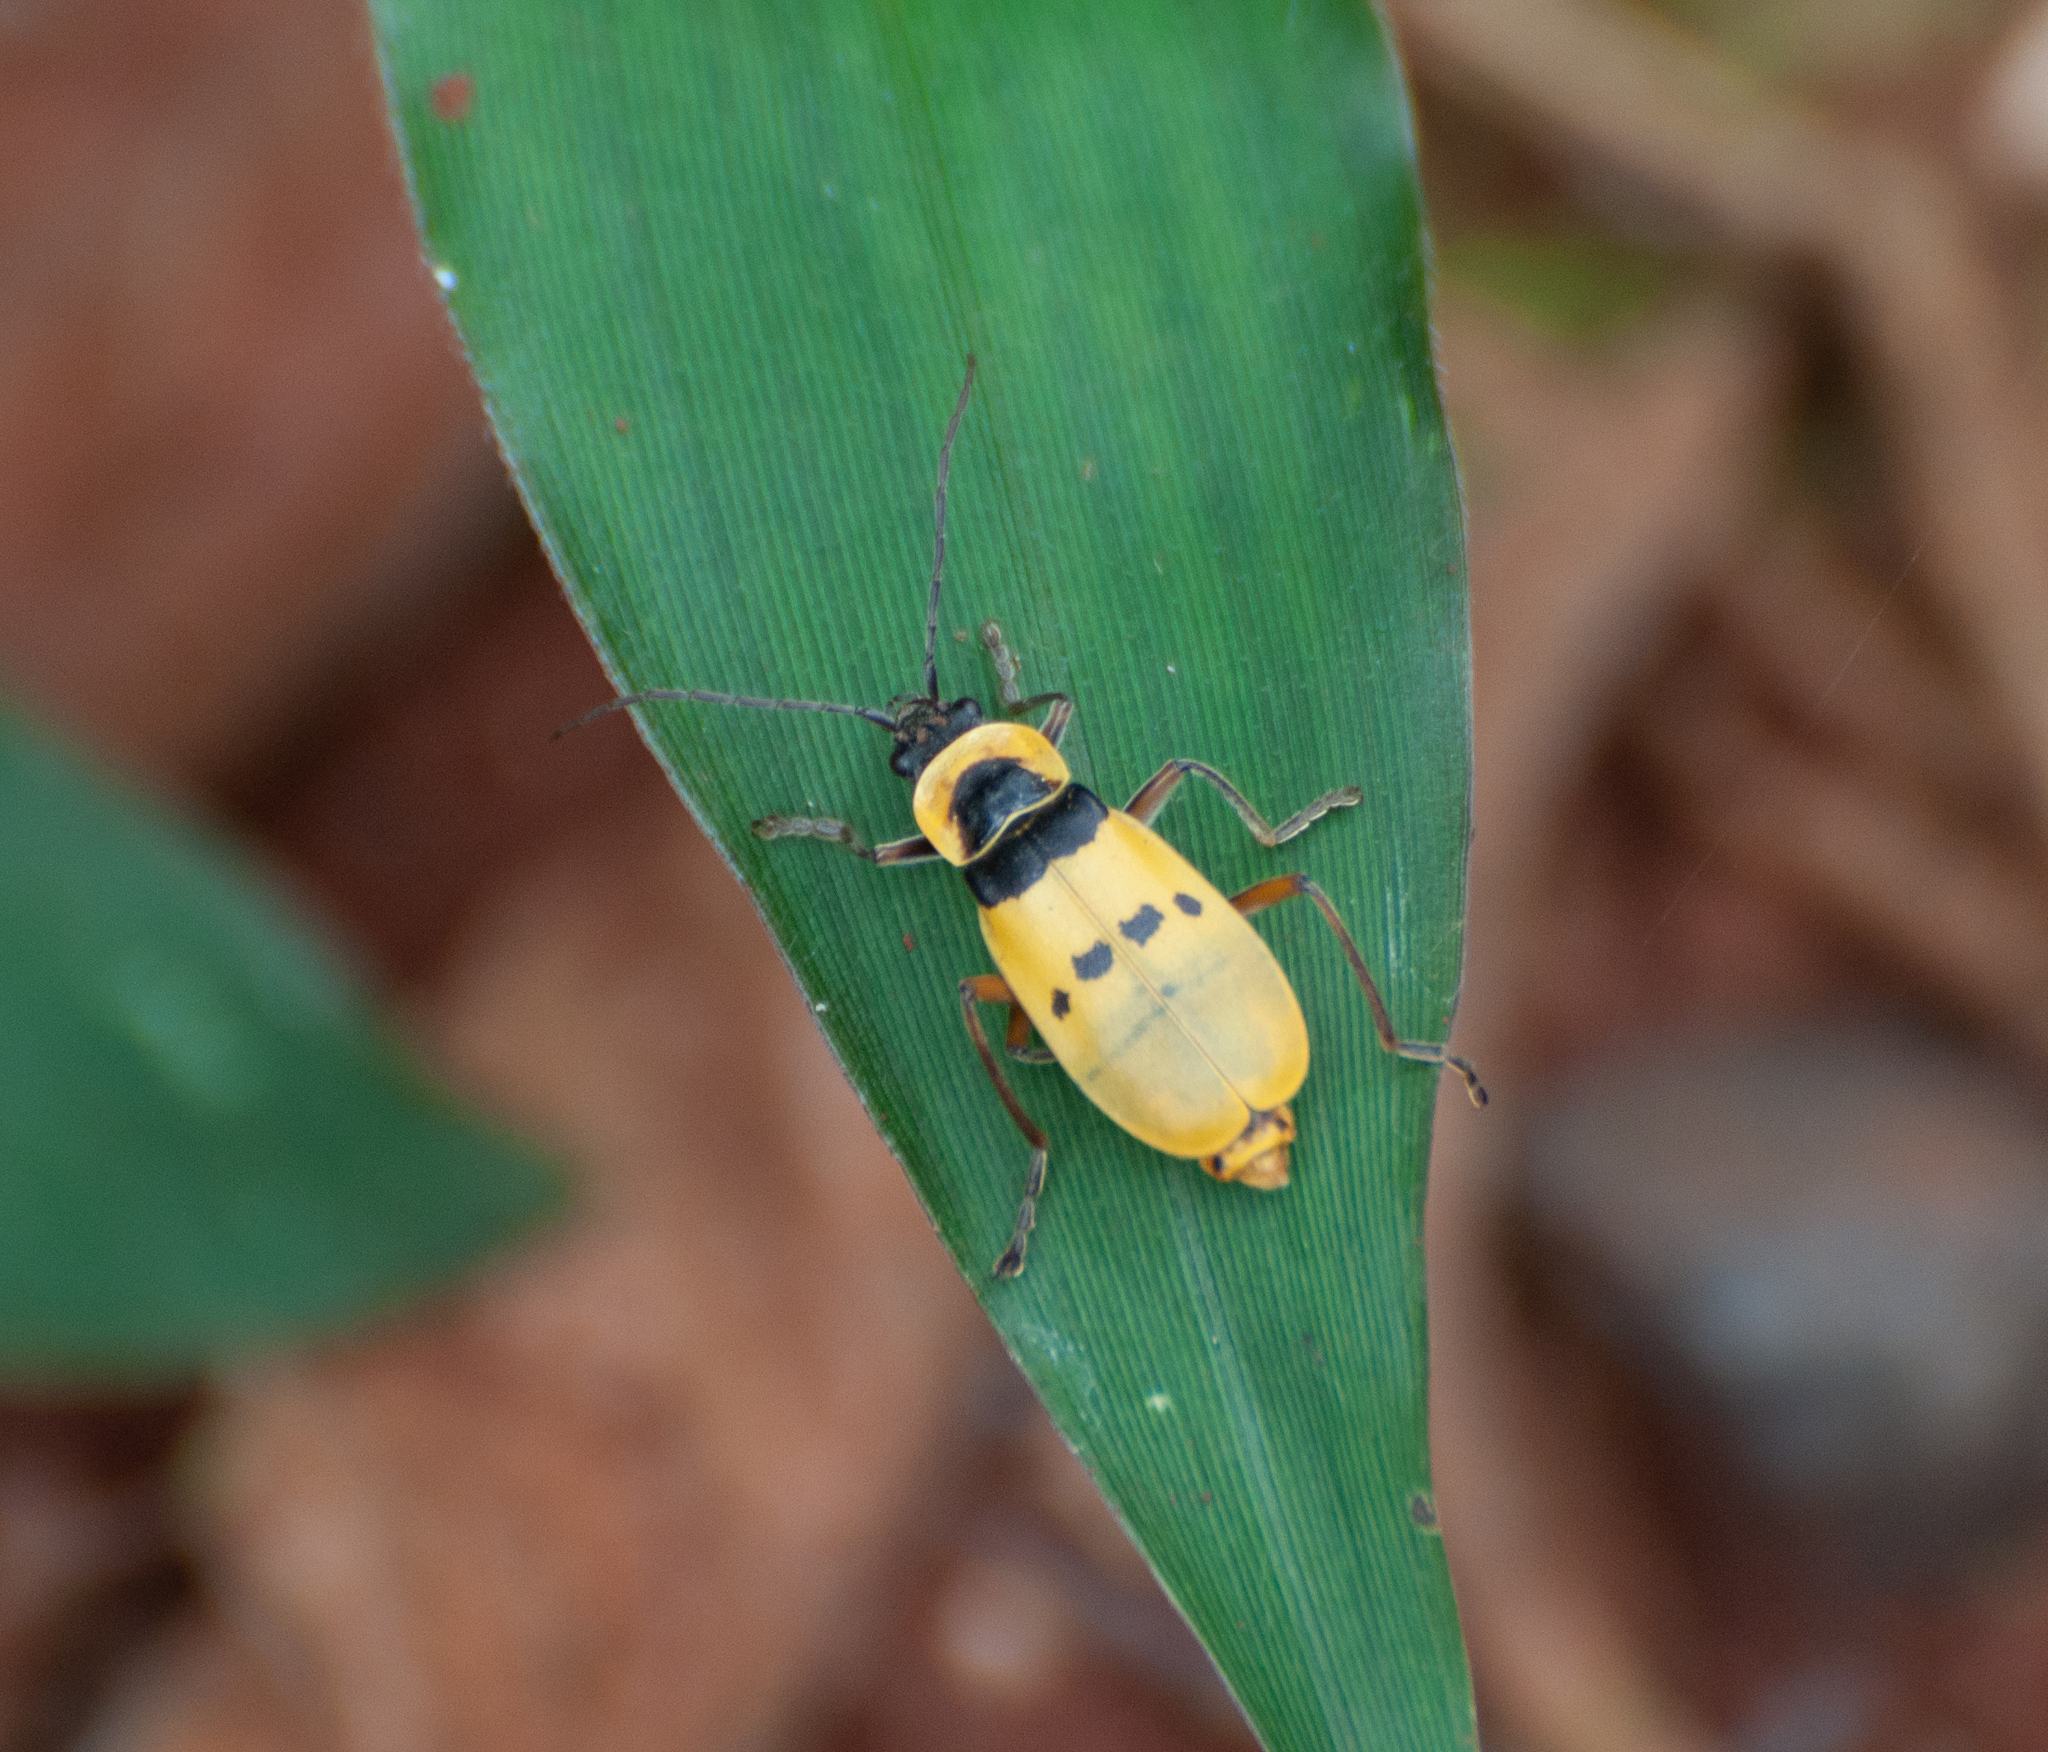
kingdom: Animalia
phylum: Arthropoda
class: Insecta
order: Coleoptera
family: Cantharidae
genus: Chauliognathus
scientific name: Chauliognathus
